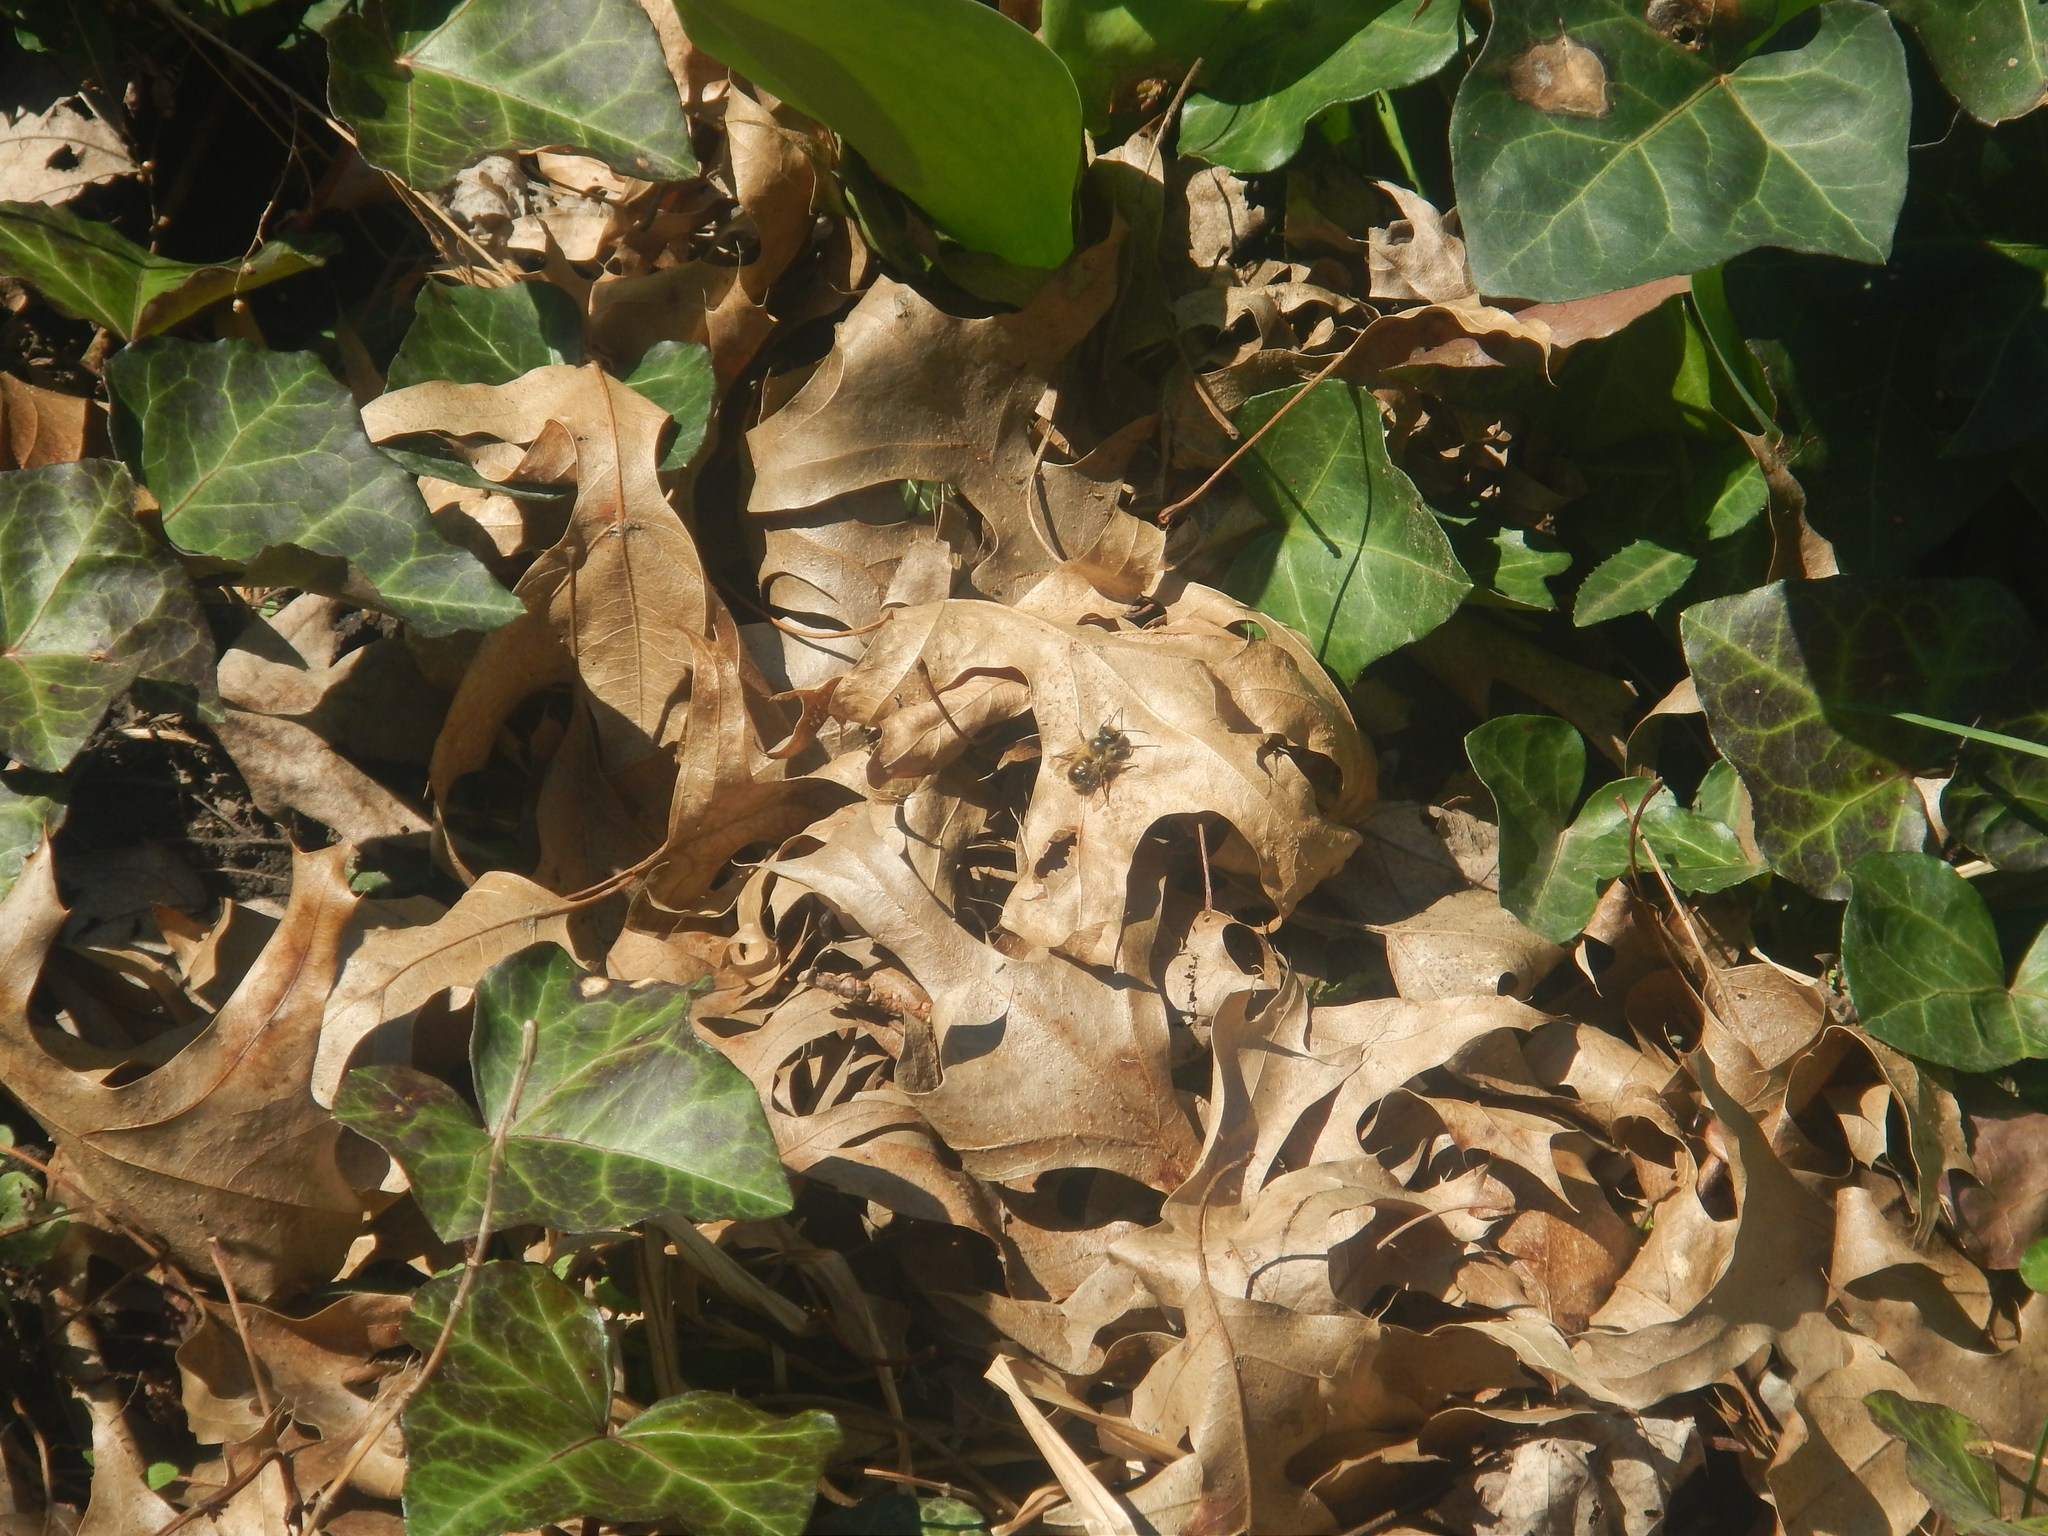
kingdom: Animalia
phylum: Arthropoda
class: Insecta
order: Hymenoptera
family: Megachilidae
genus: Osmia
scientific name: Osmia taurus
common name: Taurus mason bee
